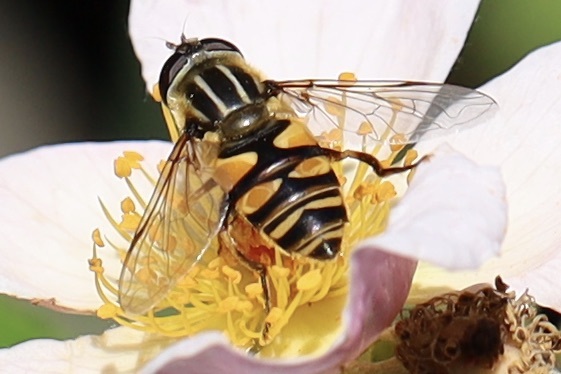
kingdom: Animalia
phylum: Arthropoda
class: Insecta
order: Diptera
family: Syrphidae
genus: Helophilus
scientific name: Helophilus fasciatus
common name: Narrow-headed marsh fly
